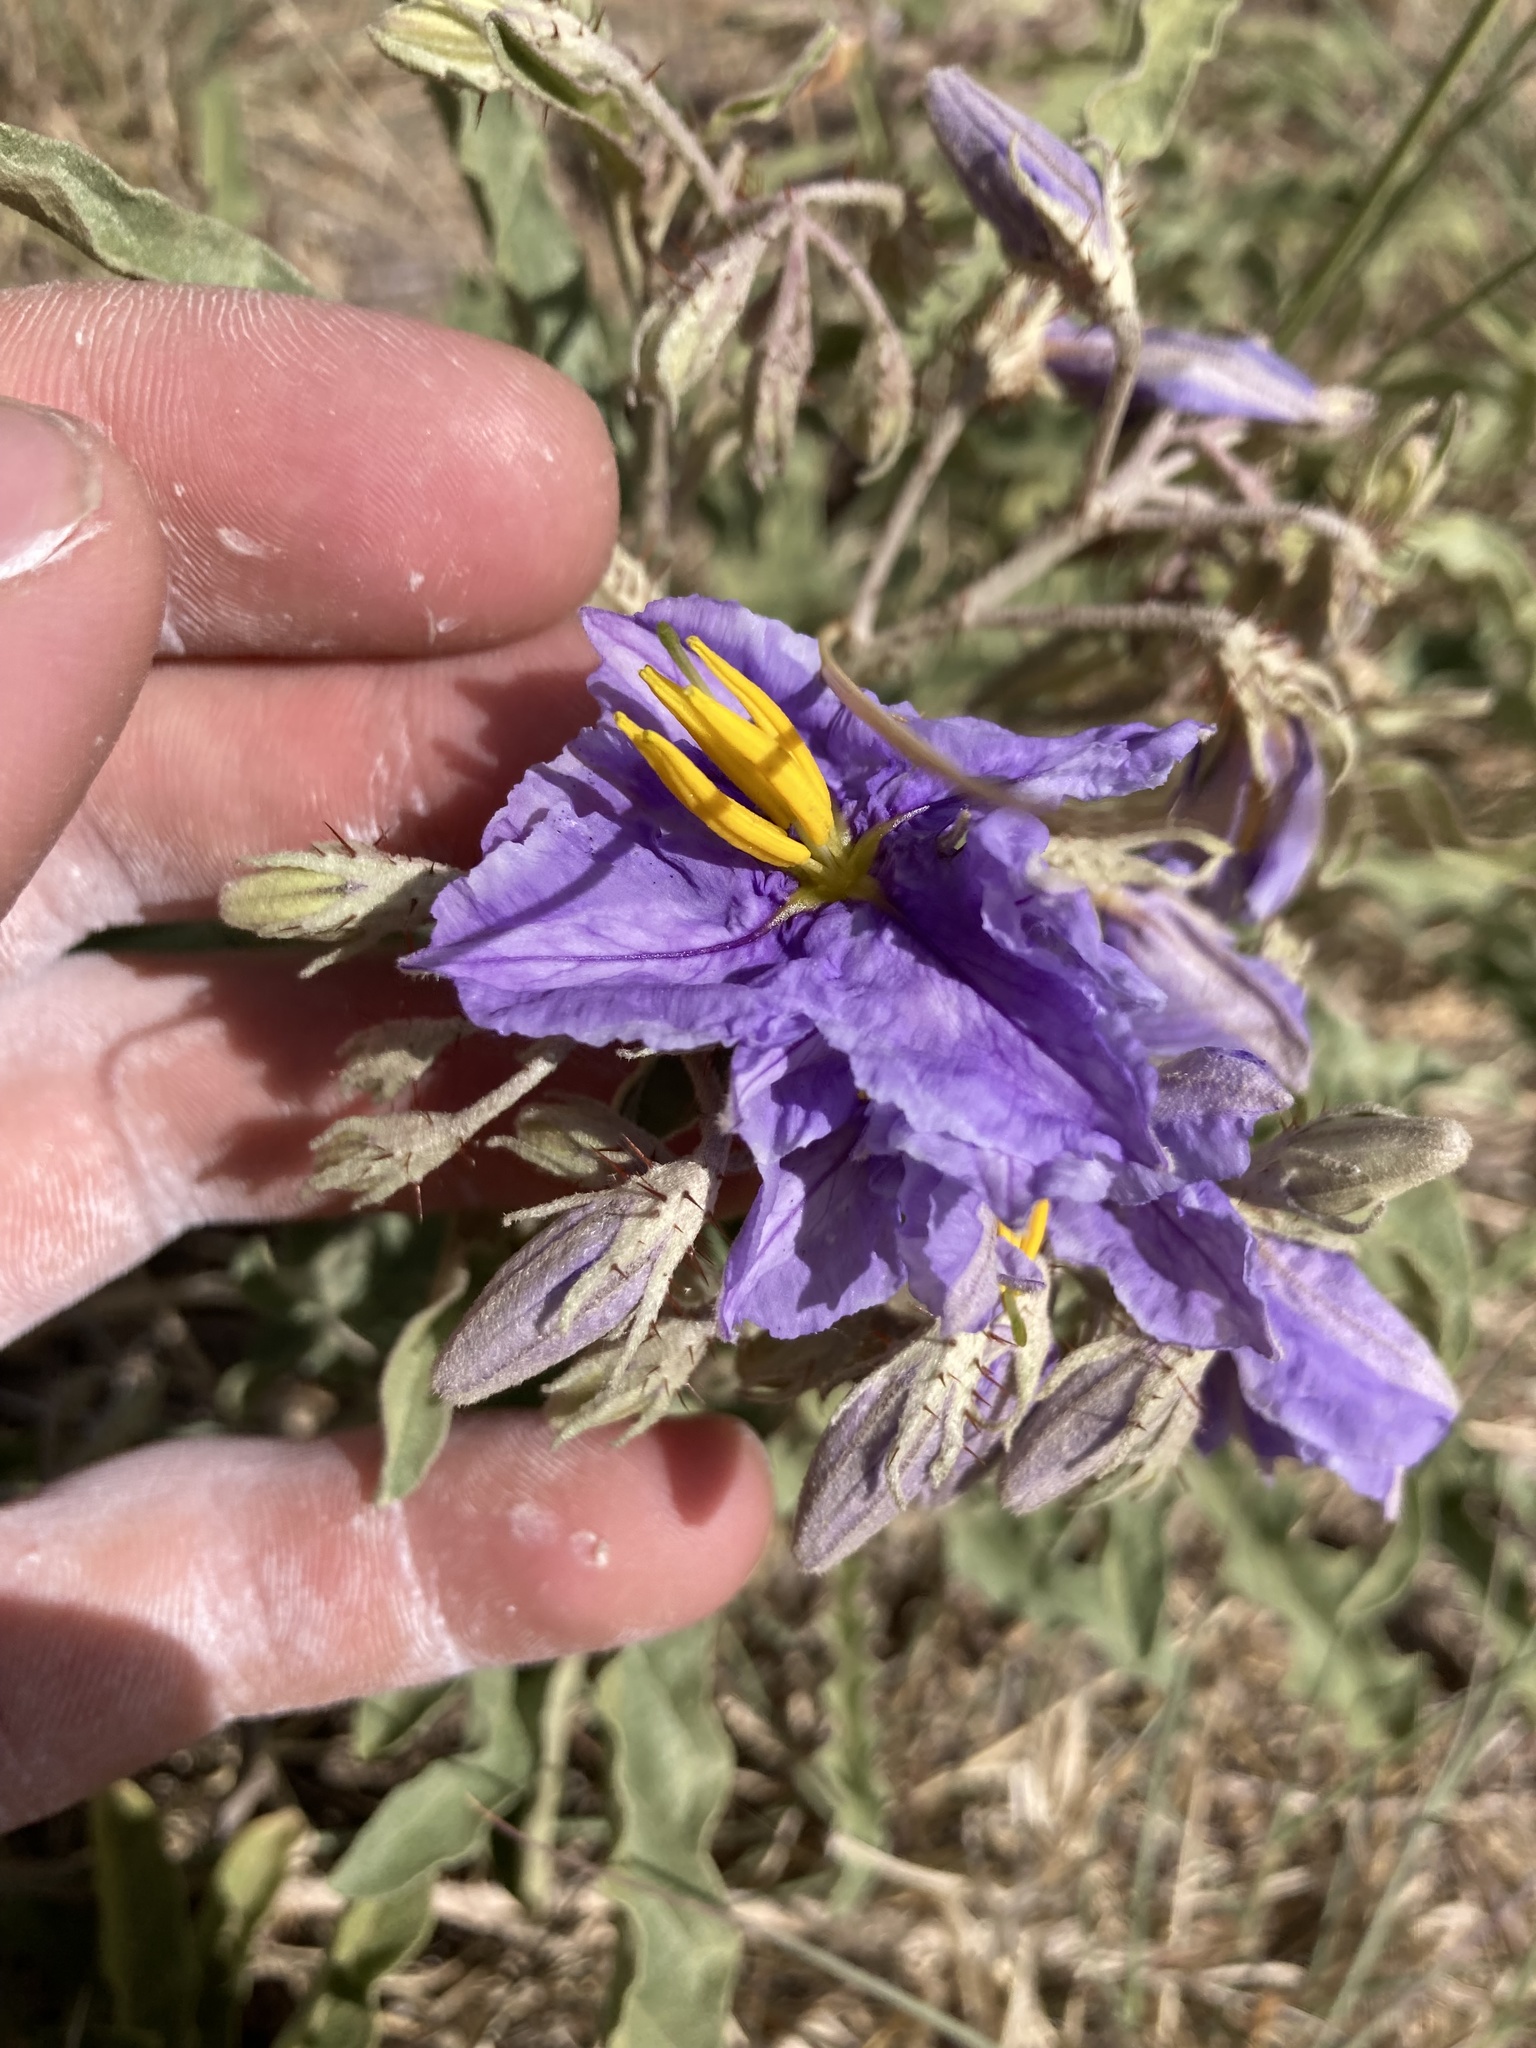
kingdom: Plantae
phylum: Tracheophyta
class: Magnoliopsida
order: Solanales
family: Solanaceae
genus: Solanum
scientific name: Solanum elaeagnifolium
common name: Silverleaf nightshade
